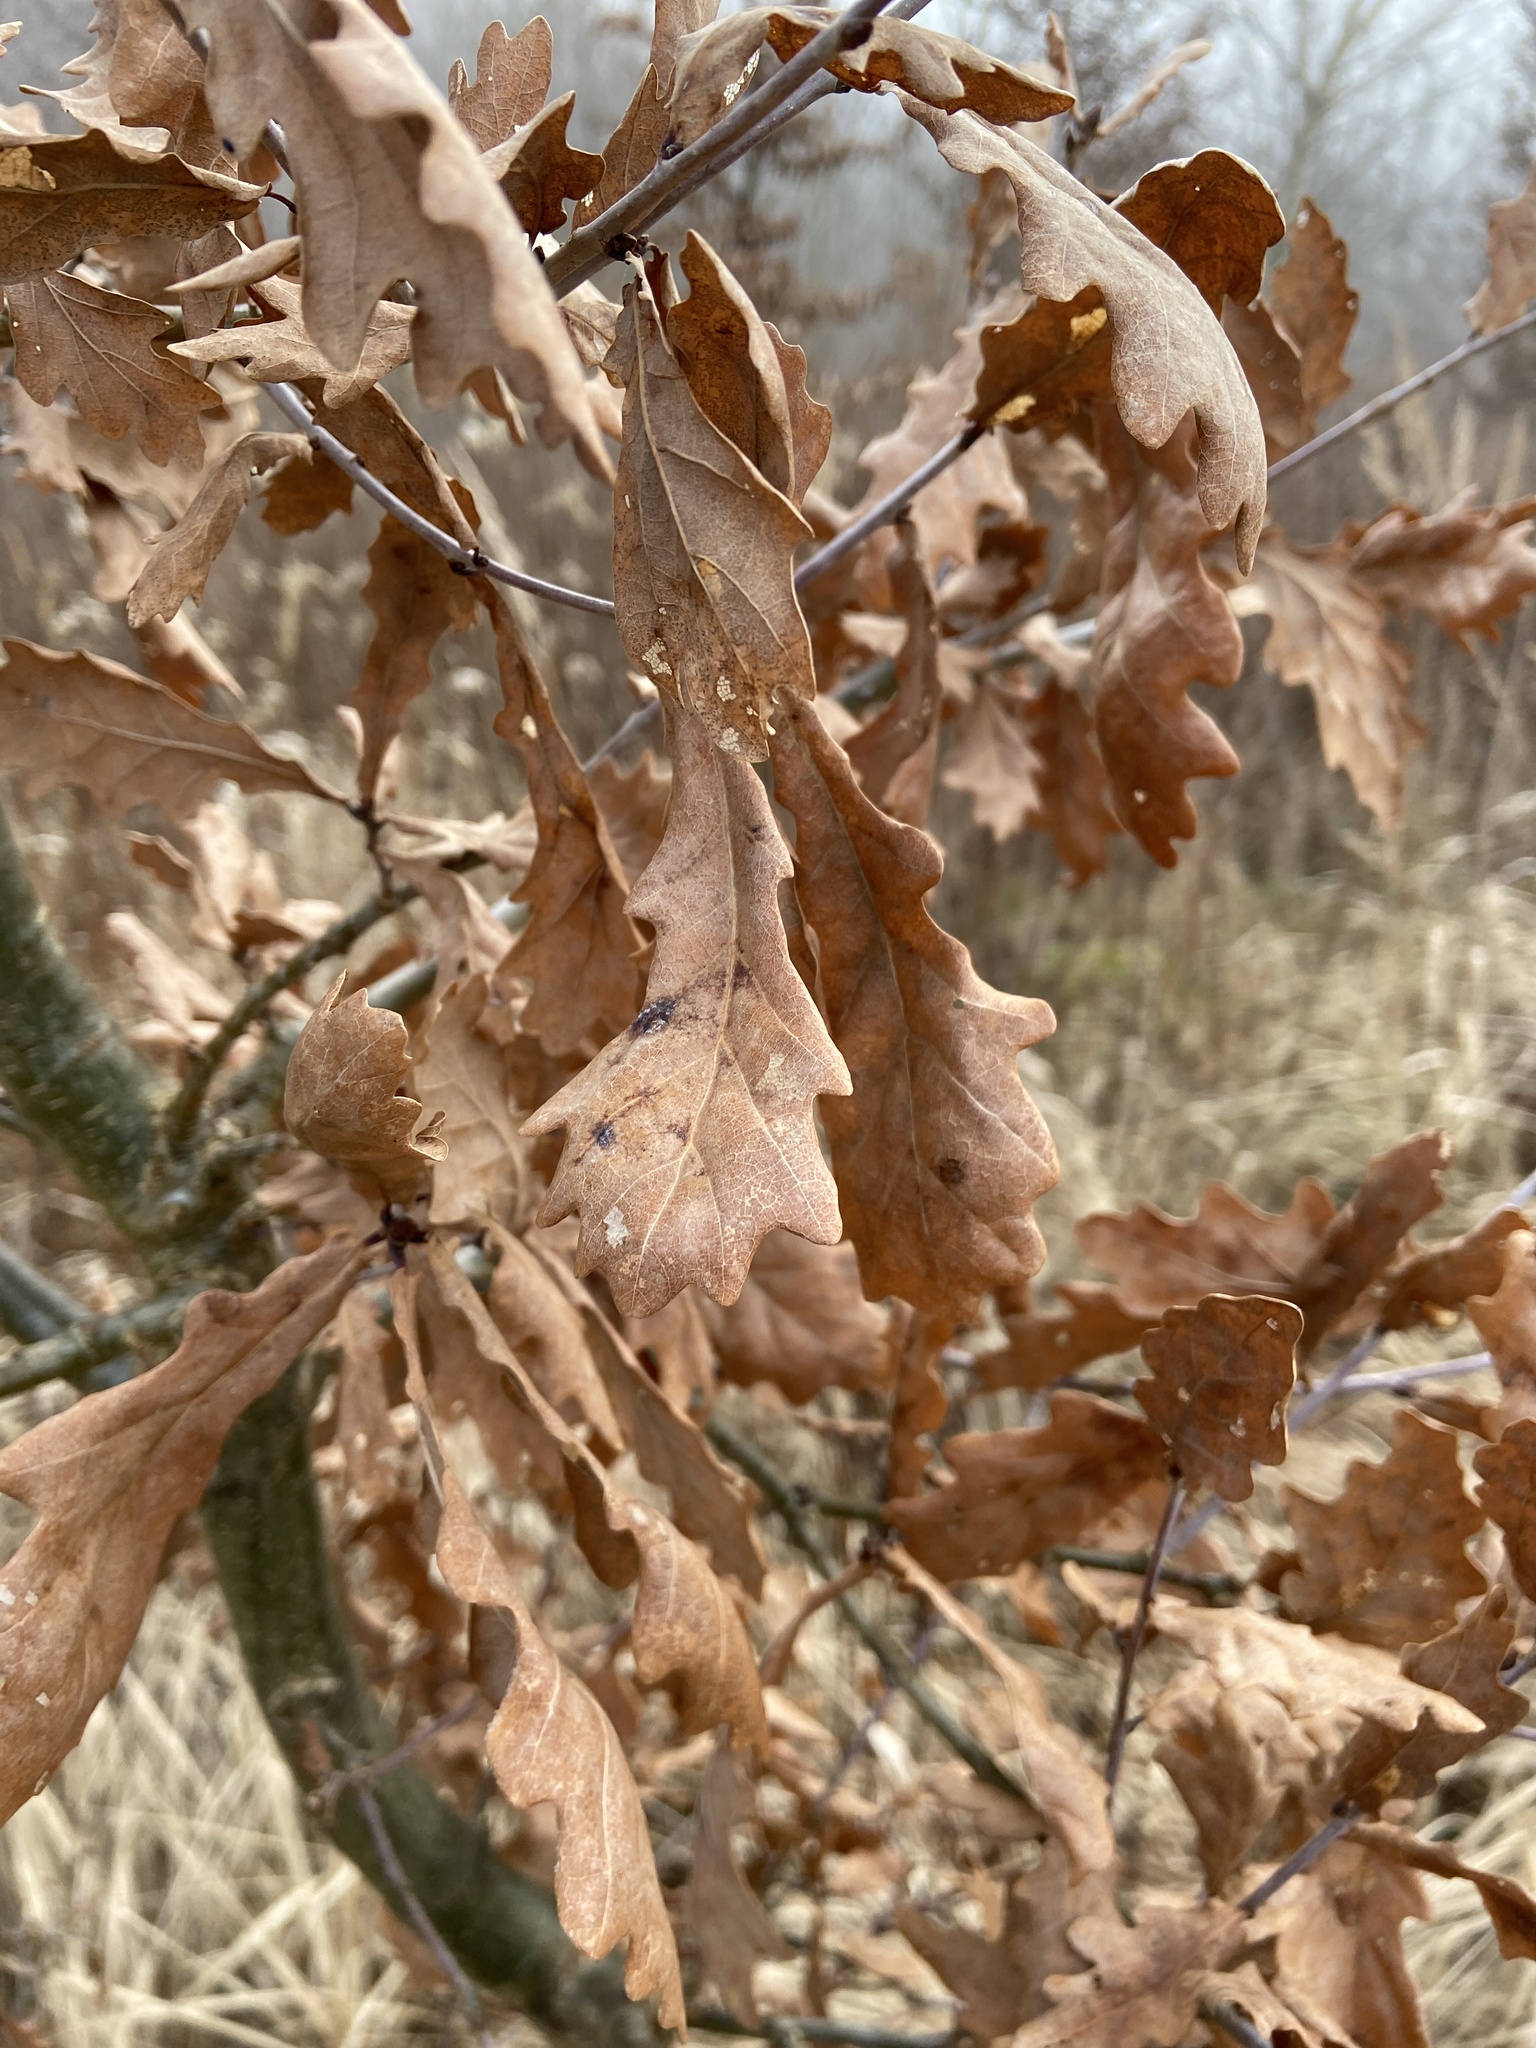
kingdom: Plantae
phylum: Tracheophyta
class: Magnoliopsida
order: Fagales
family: Fagaceae
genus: Quercus
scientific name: Quercus robur
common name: Pedunculate oak
